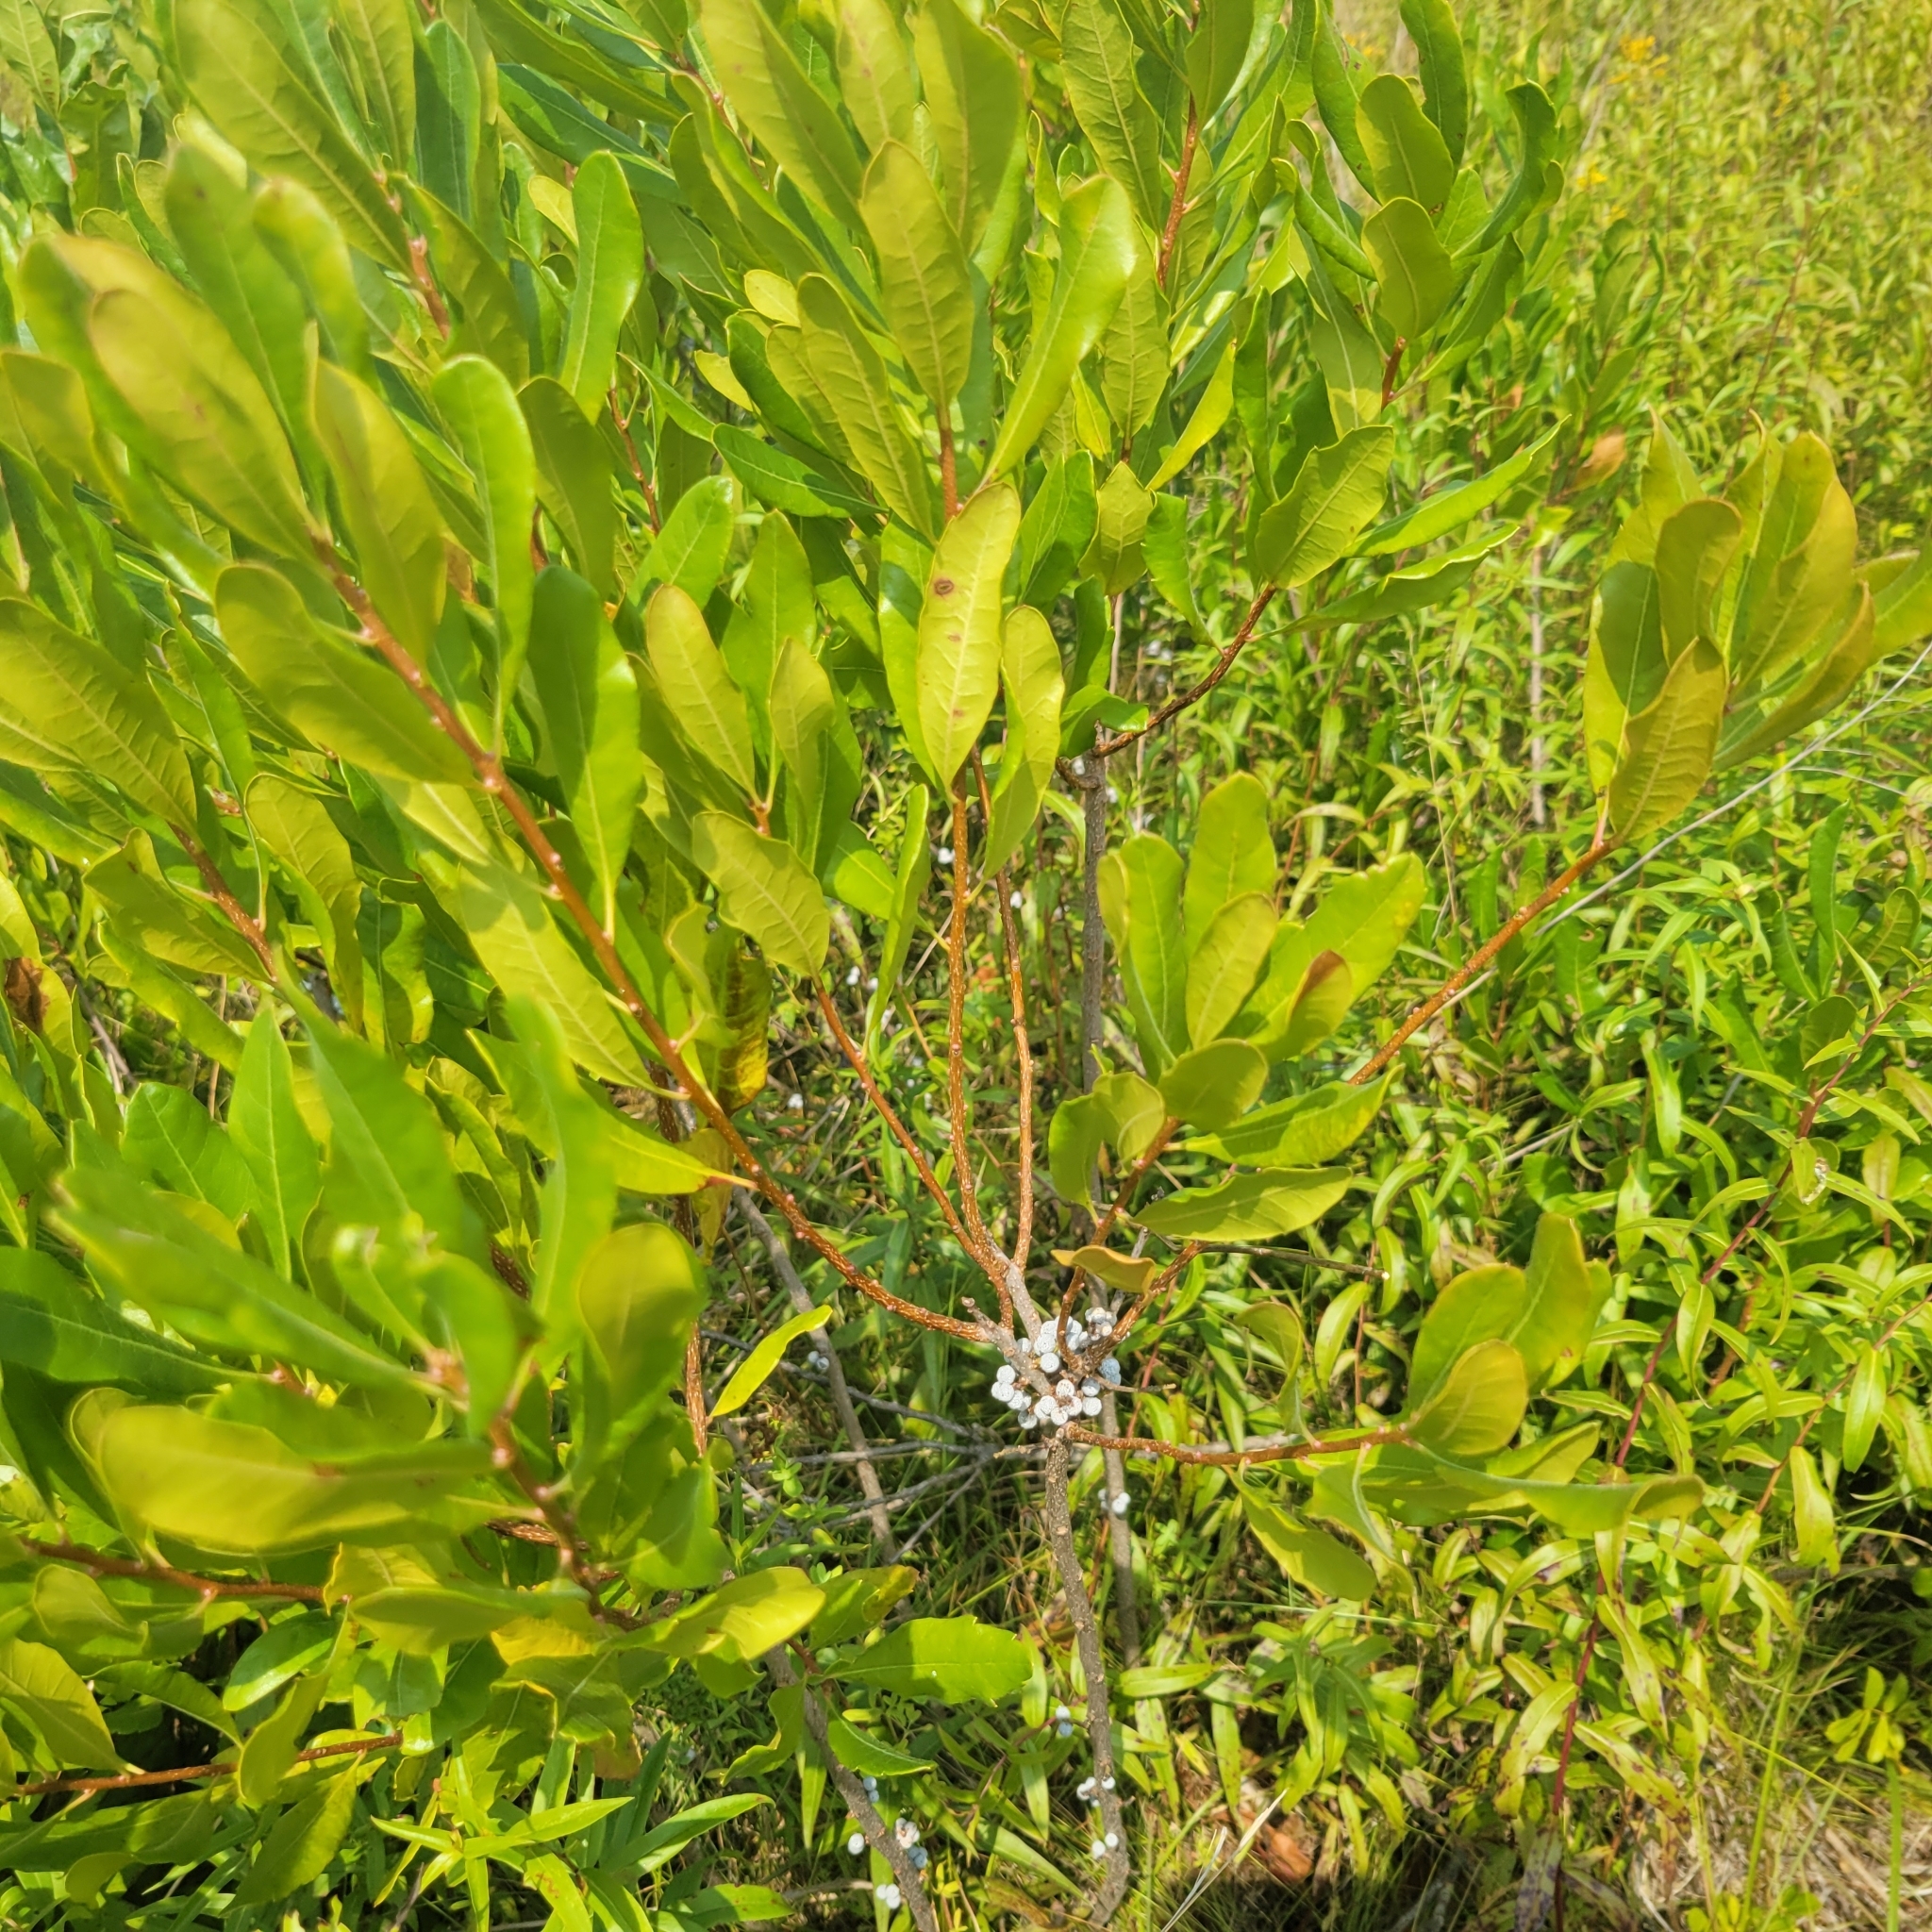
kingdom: Plantae
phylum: Tracheophyta
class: Magnoliopsida
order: Fagales
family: Myricaceae
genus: Morella
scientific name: Morella pensylvanica
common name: Northern bayberry
